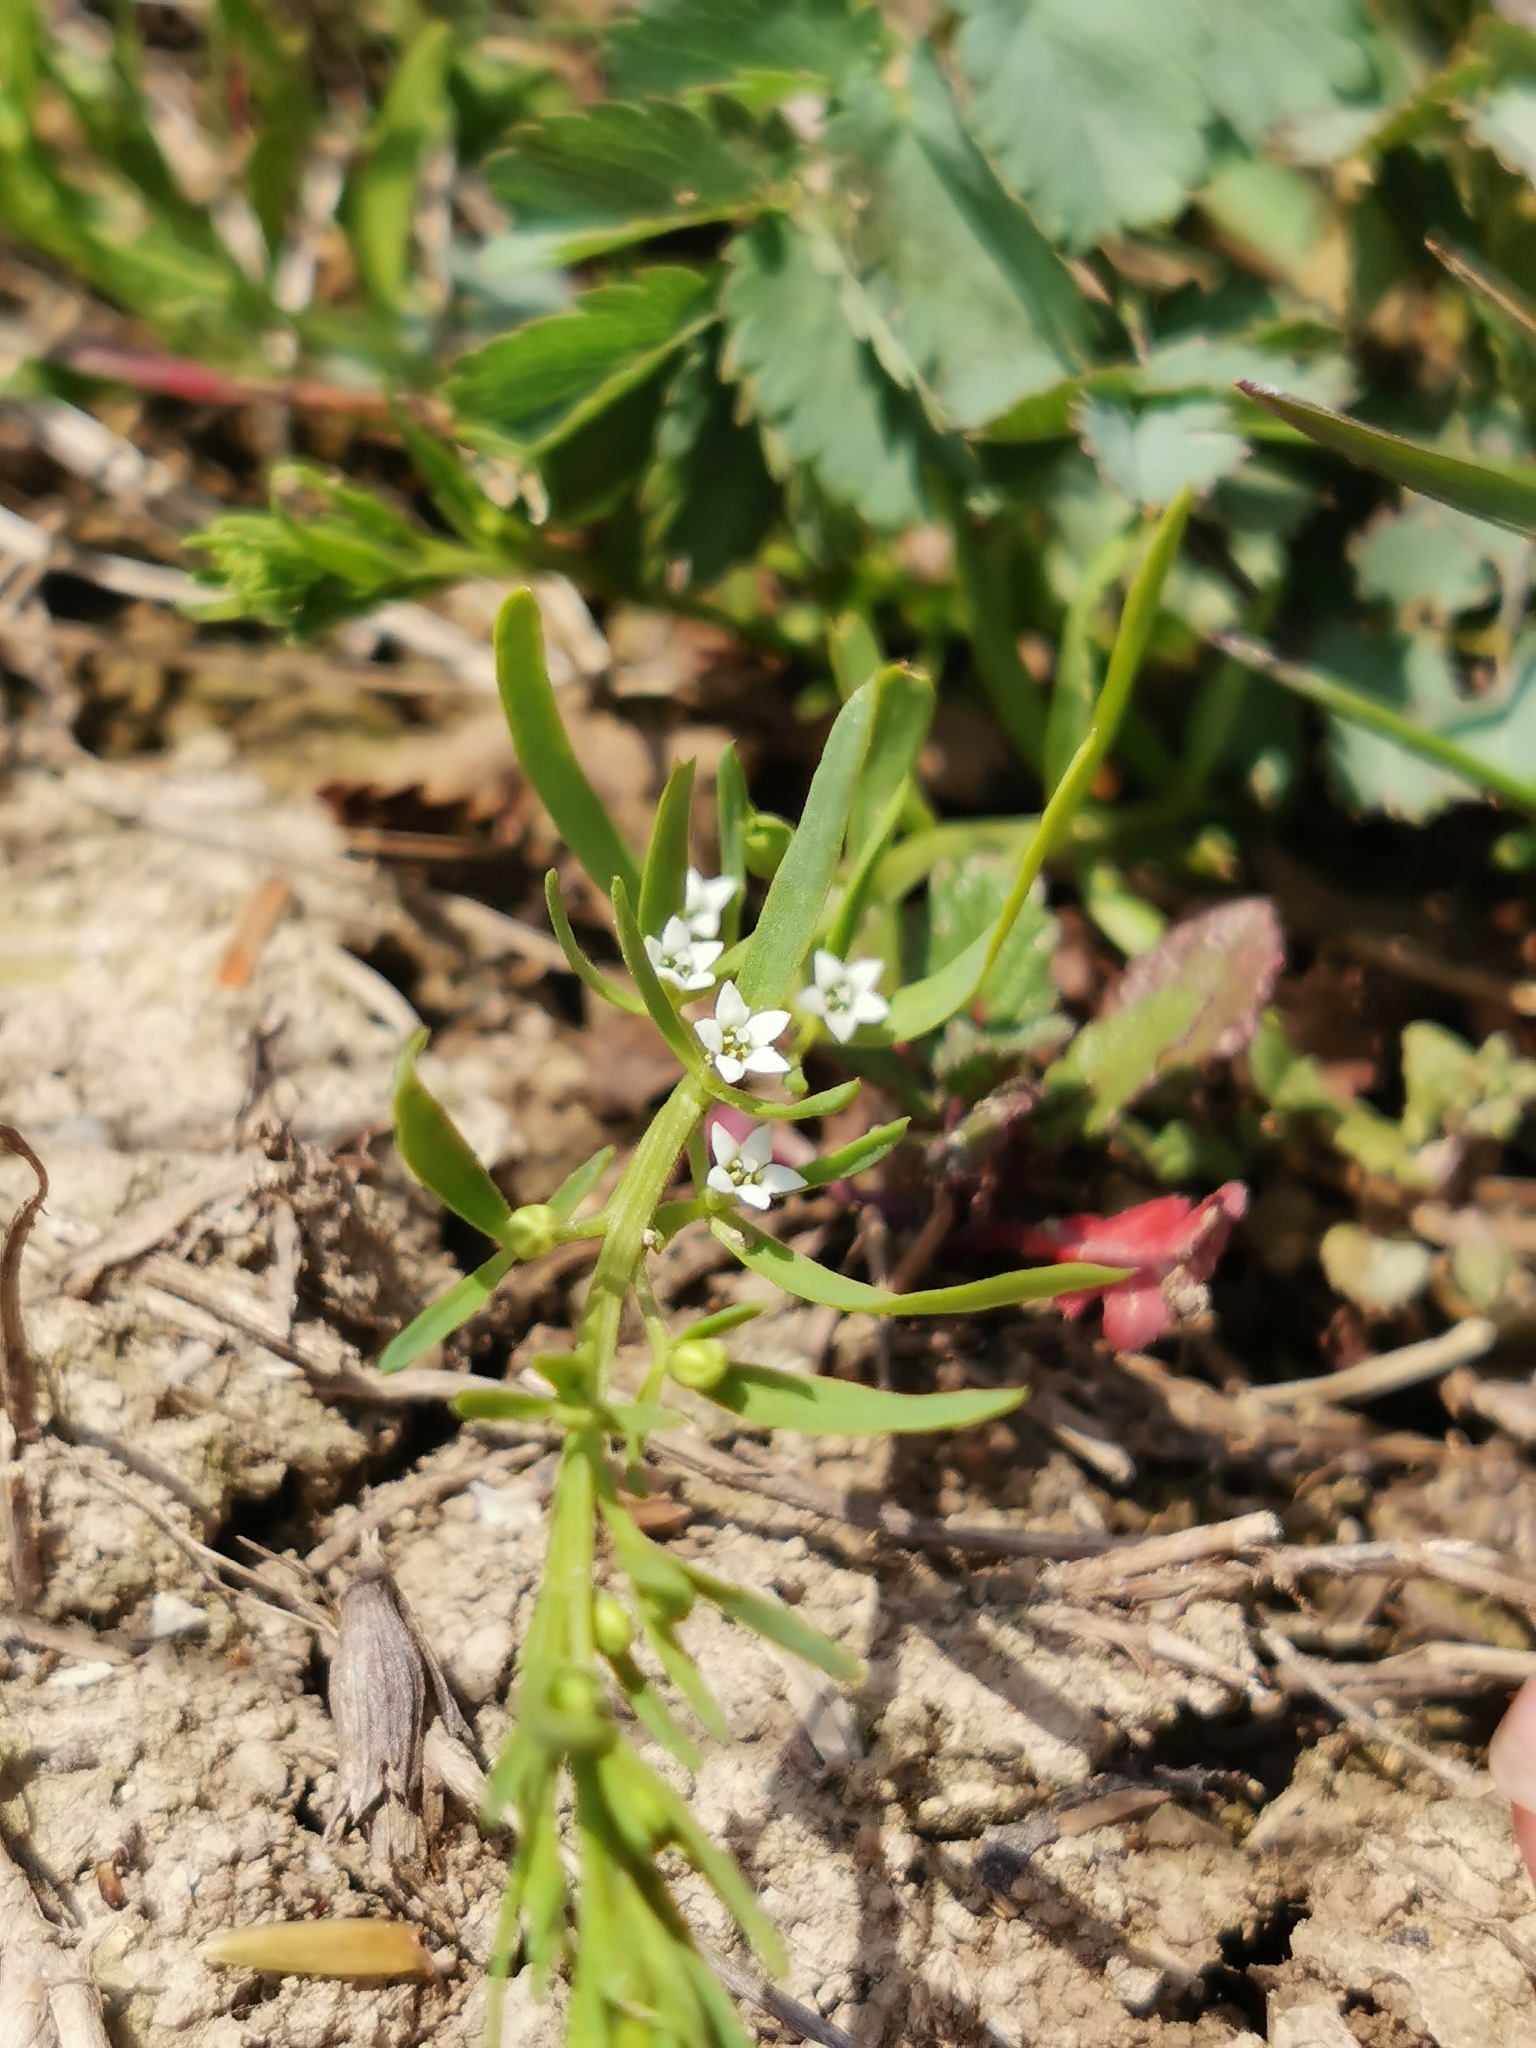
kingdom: Plantae
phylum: Tracheophyta
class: Magnoliopsida
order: Santalales
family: Thesiaceae
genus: Thesium
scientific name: Thesium ramosum
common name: Field thesium
